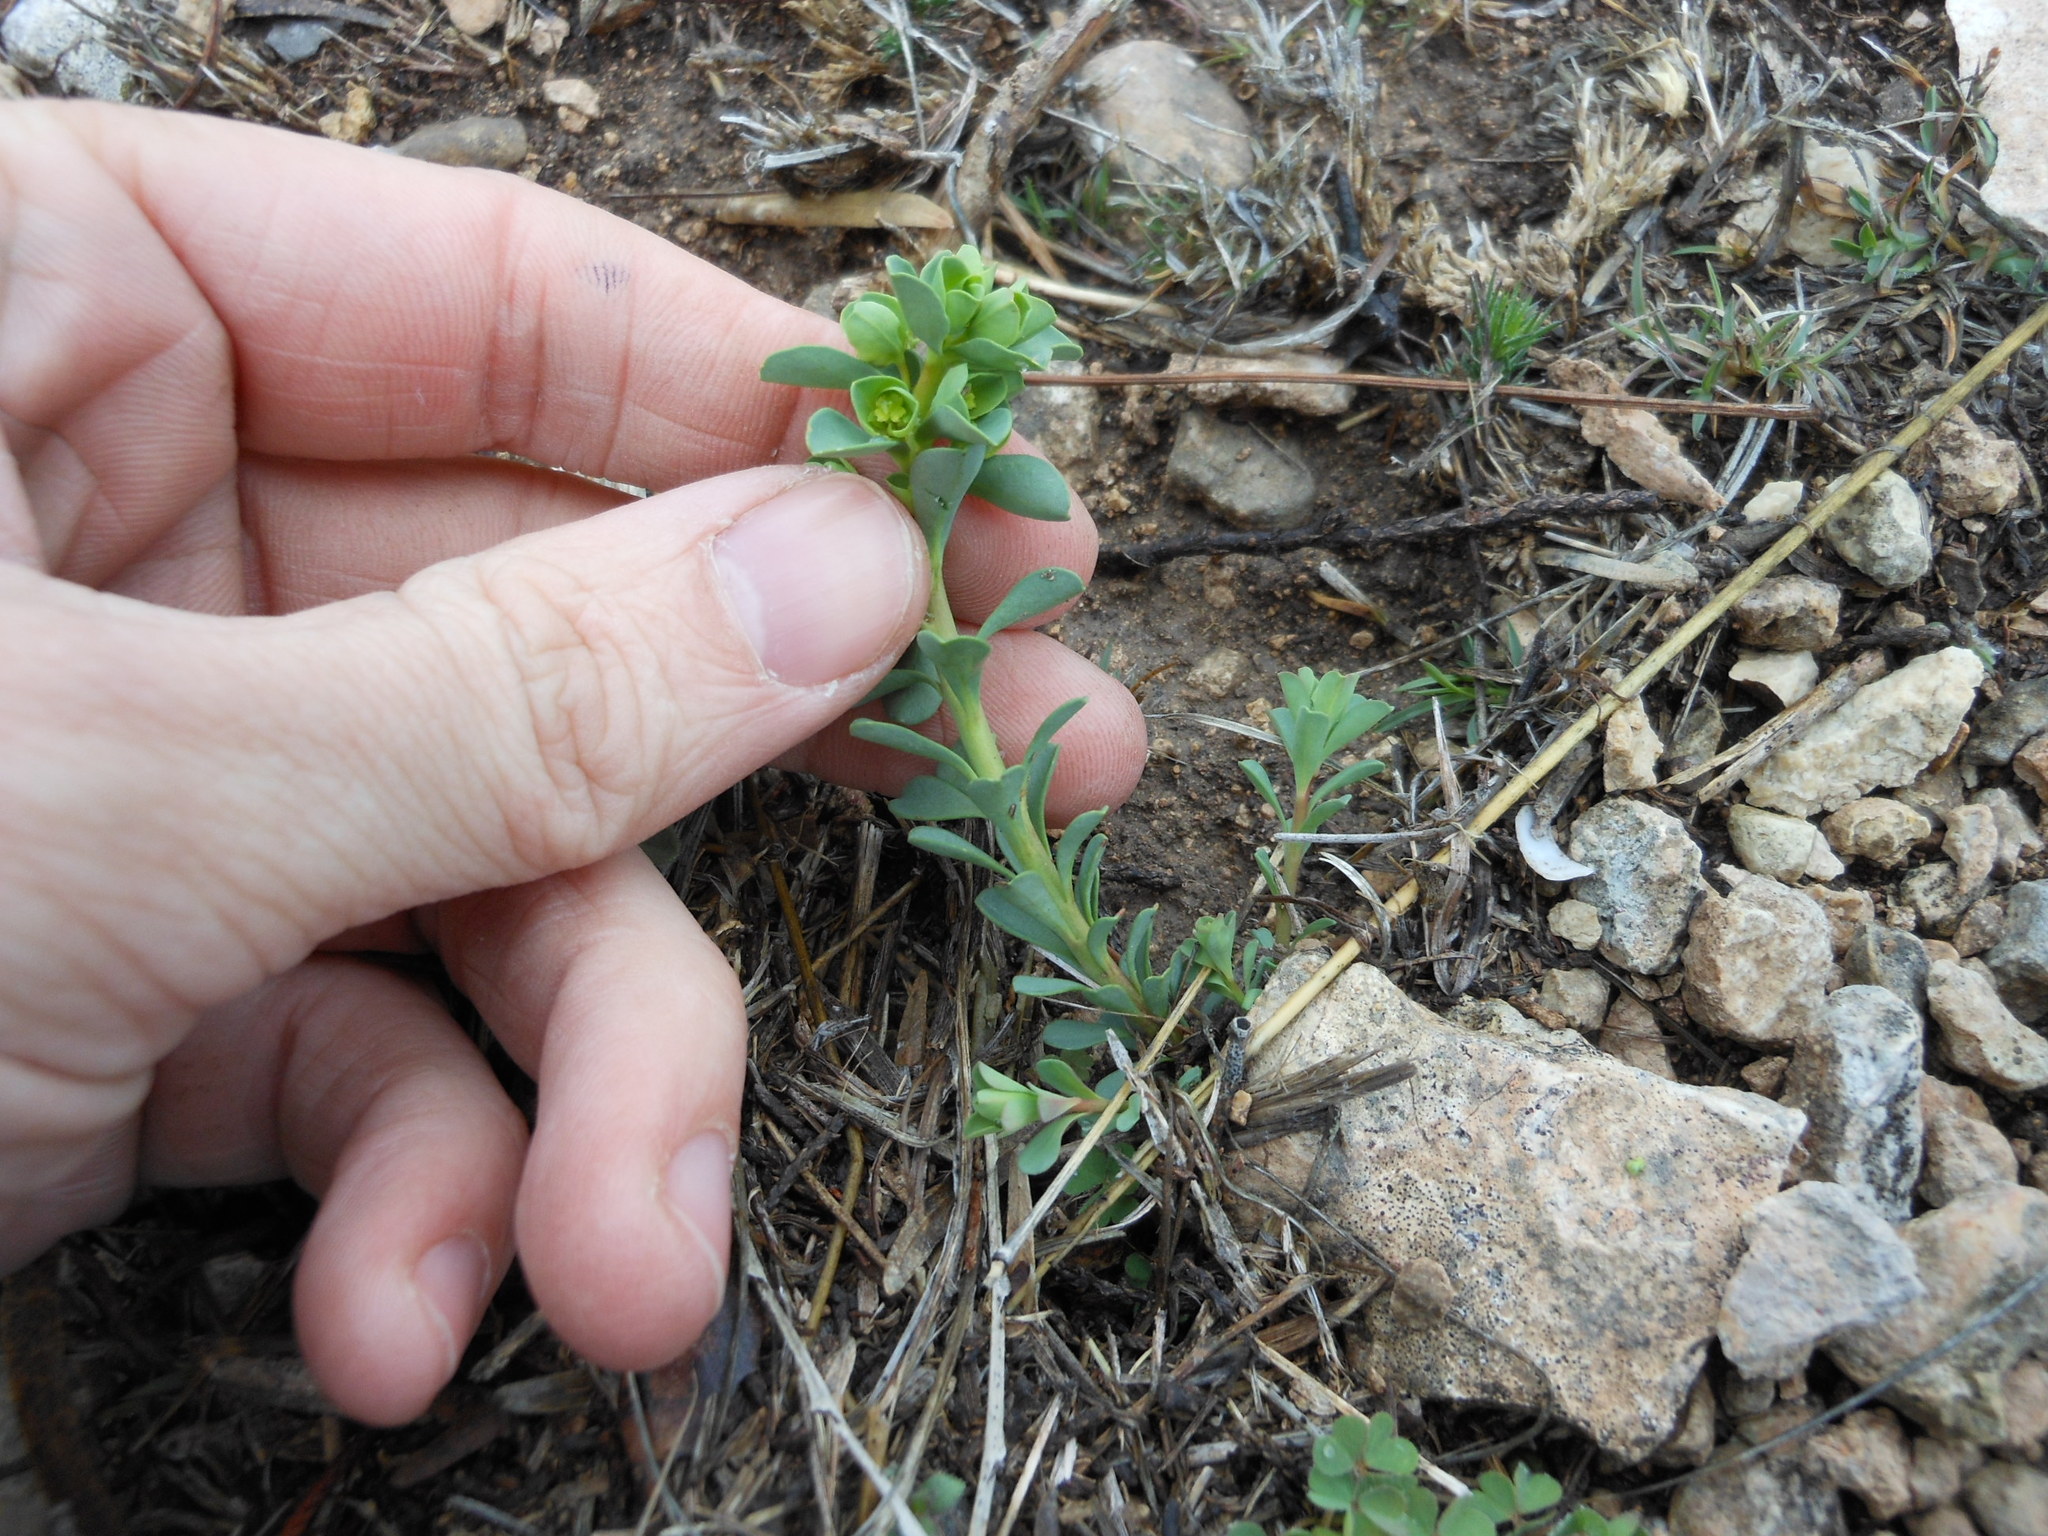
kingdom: Plantae
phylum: Tracheophyta
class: Magnoliopsida
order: Malpighiales
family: Euphorbiaceae
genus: Euphorbia
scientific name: Euphorbia longicruris
